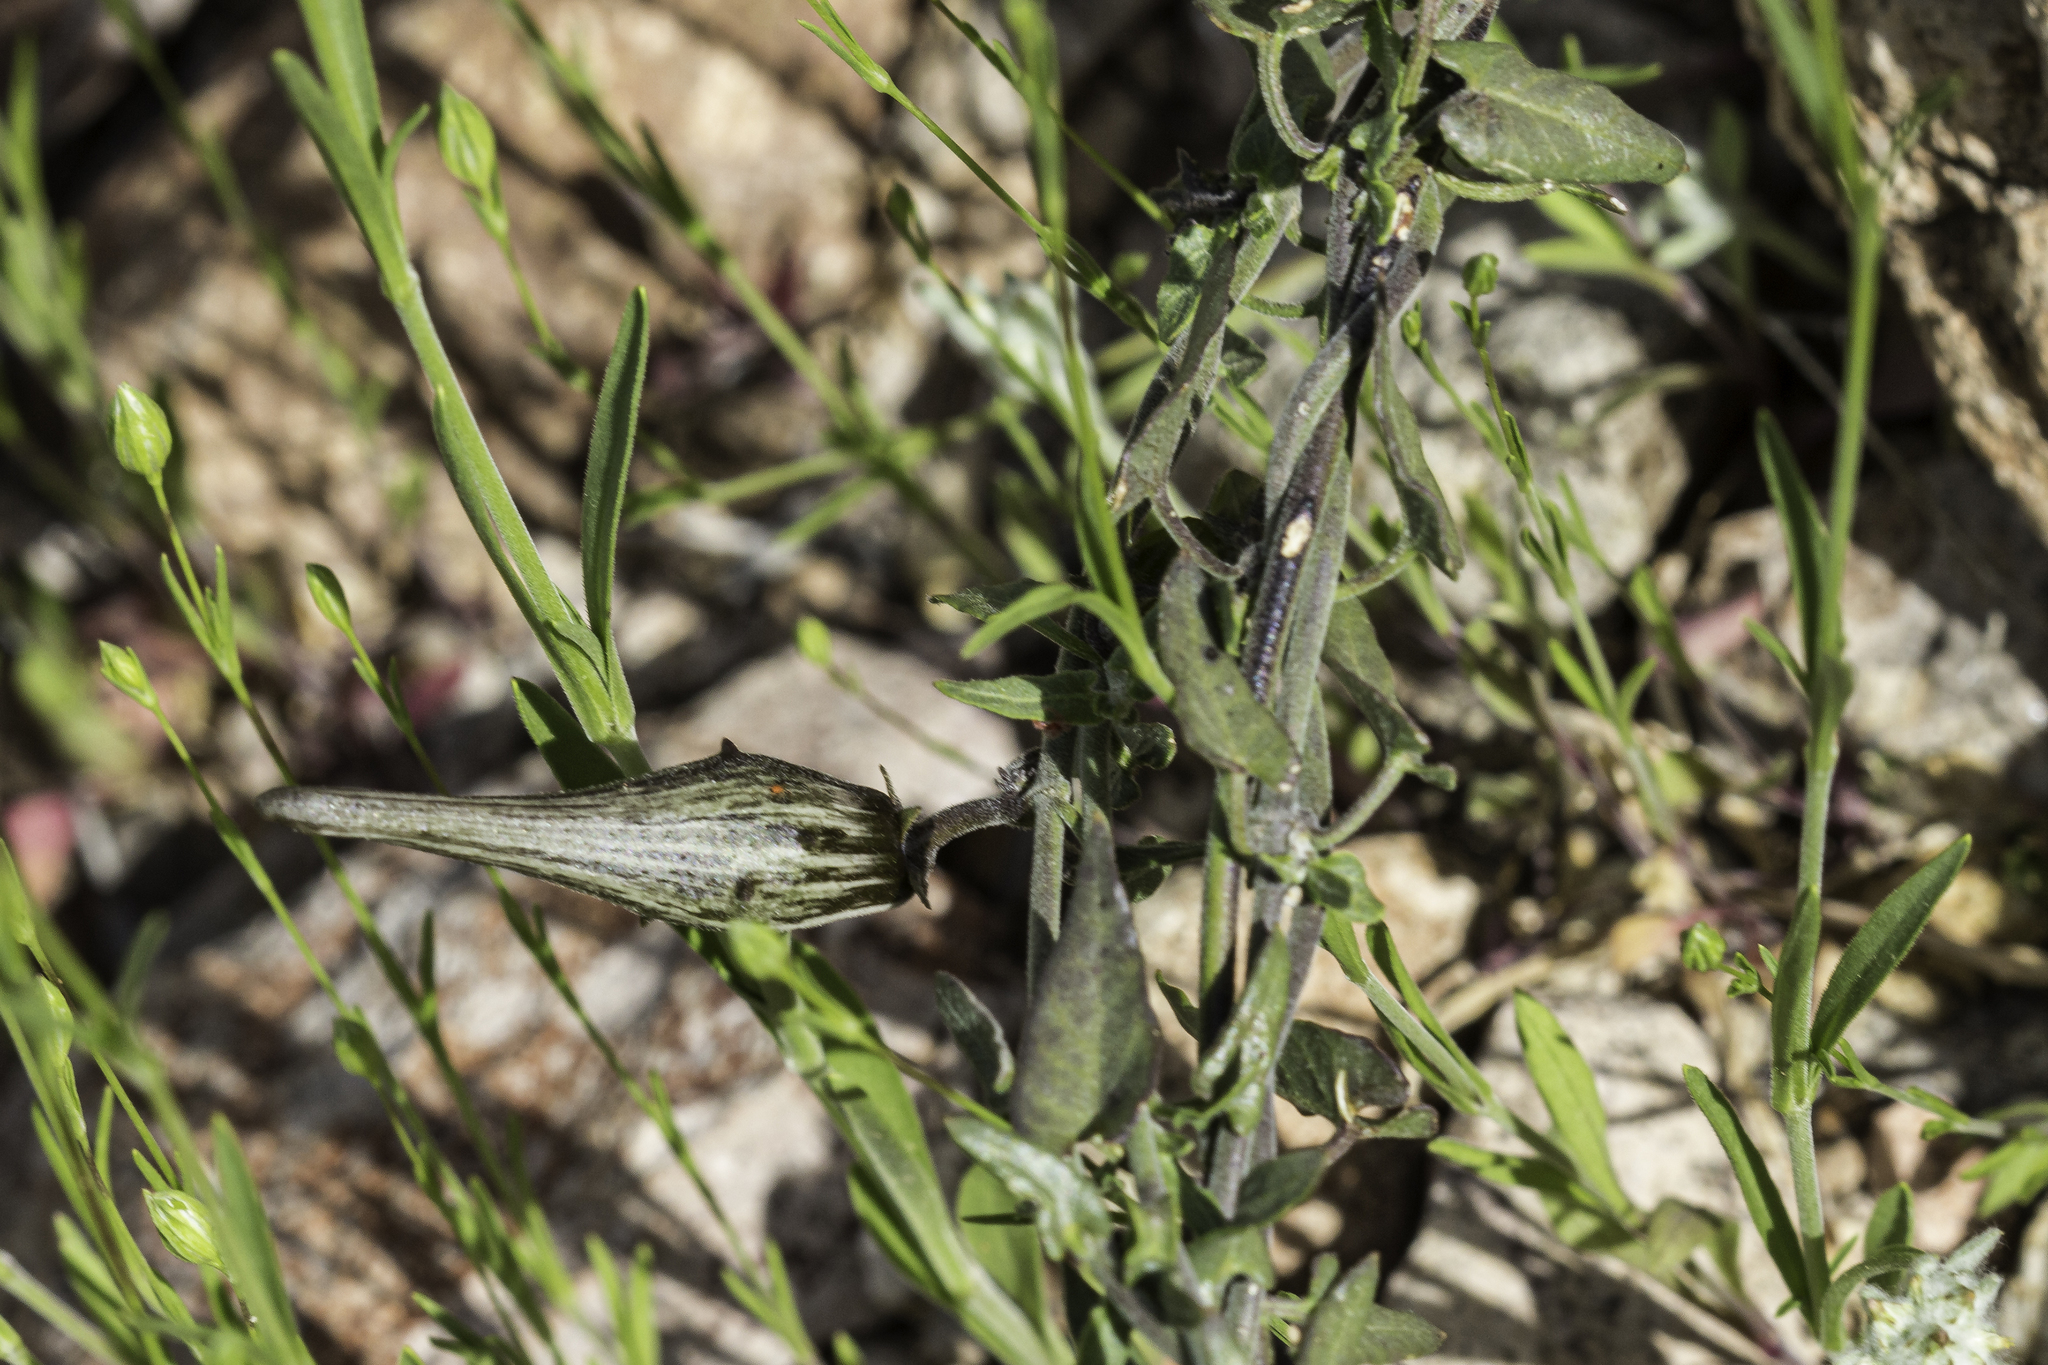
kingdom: Plantae
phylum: Tracheophyta
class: Magnoliopsida
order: Gentianales
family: Apocynaceae
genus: Matelea
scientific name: Matelea parvifolia
